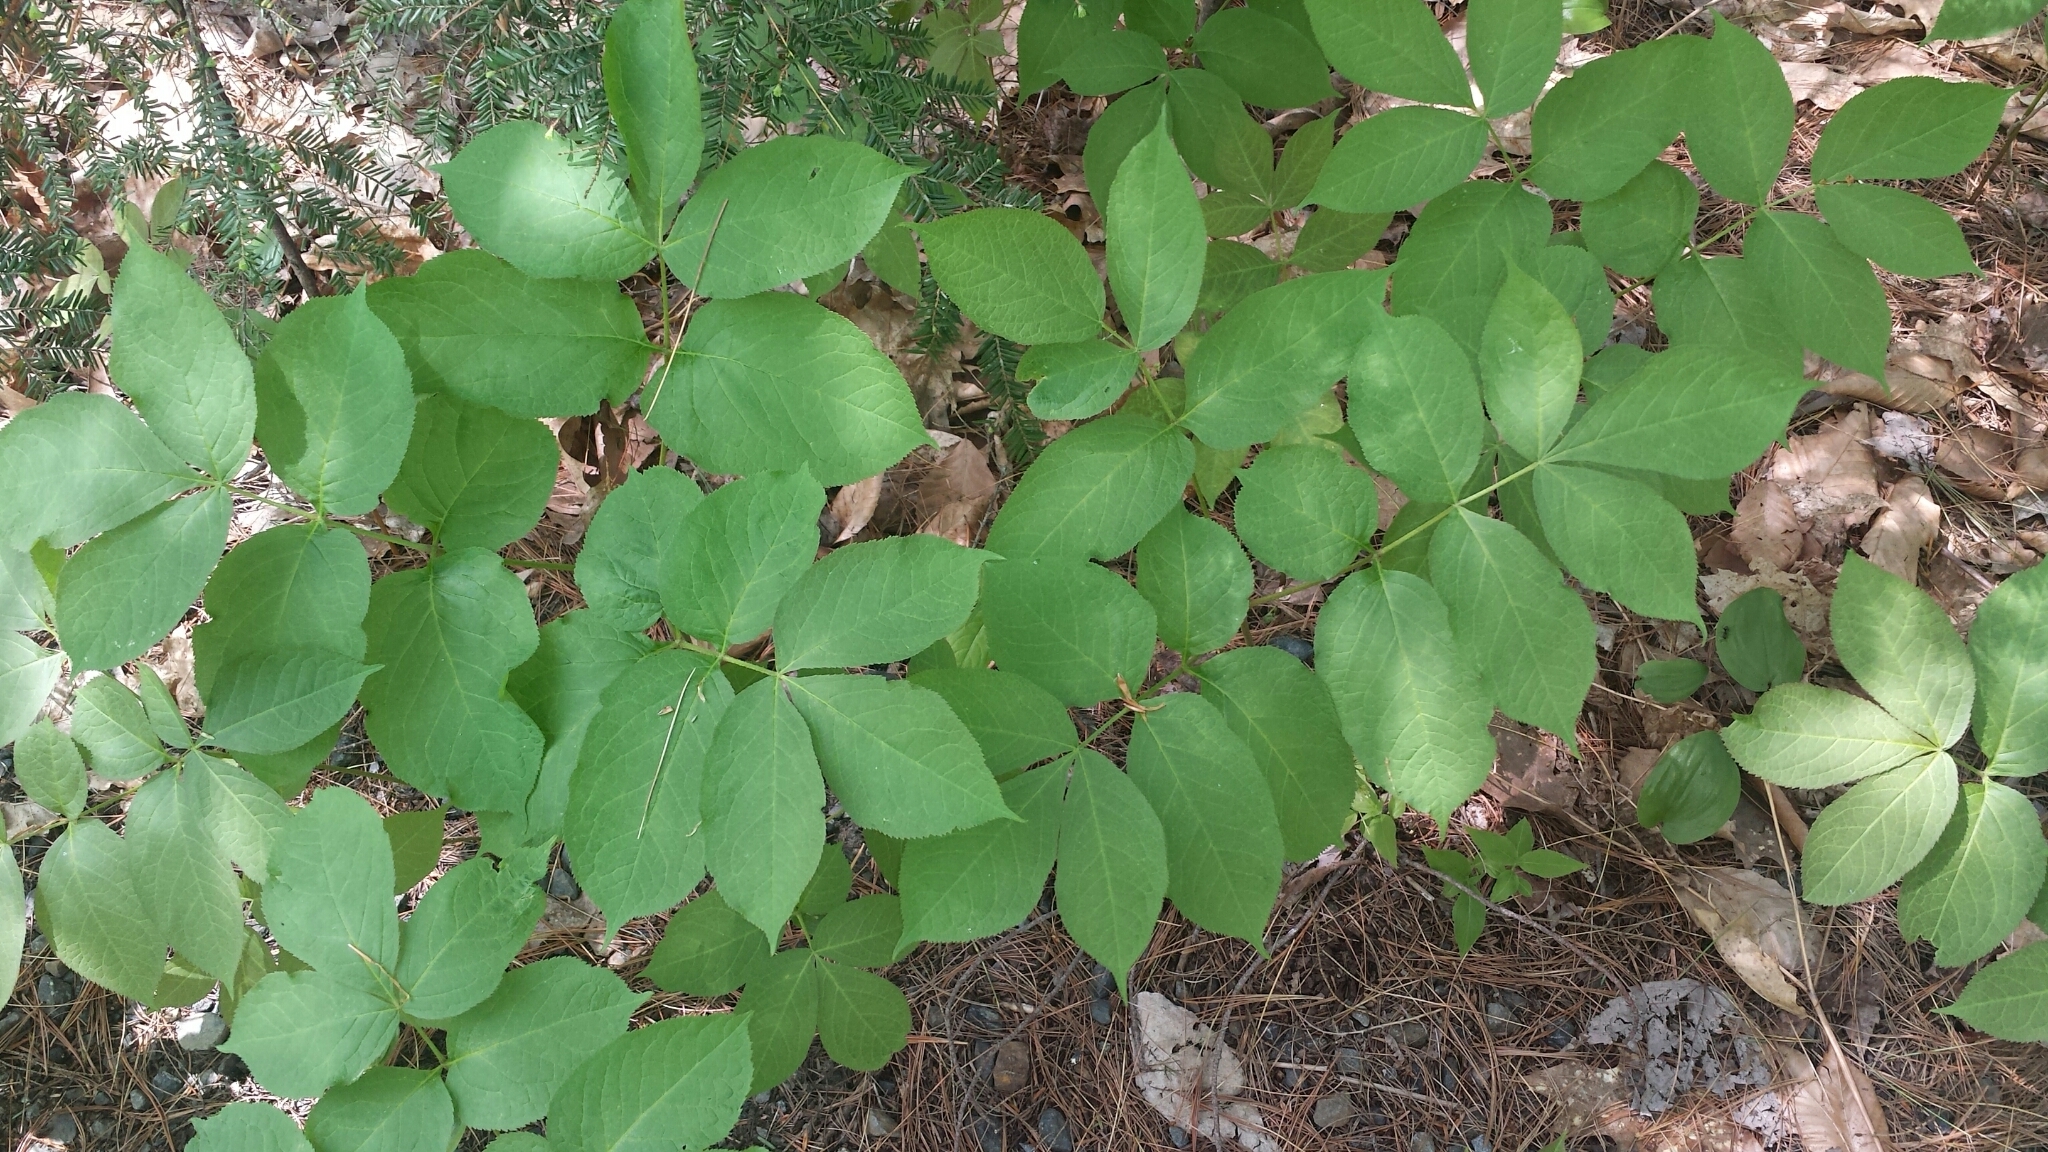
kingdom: Plantae
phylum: Tracheophyta
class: Magnoliopsida
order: Apiales
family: Araliaceae
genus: Aralia
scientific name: Aralia nudicaulis
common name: Wild sarsaparilla
